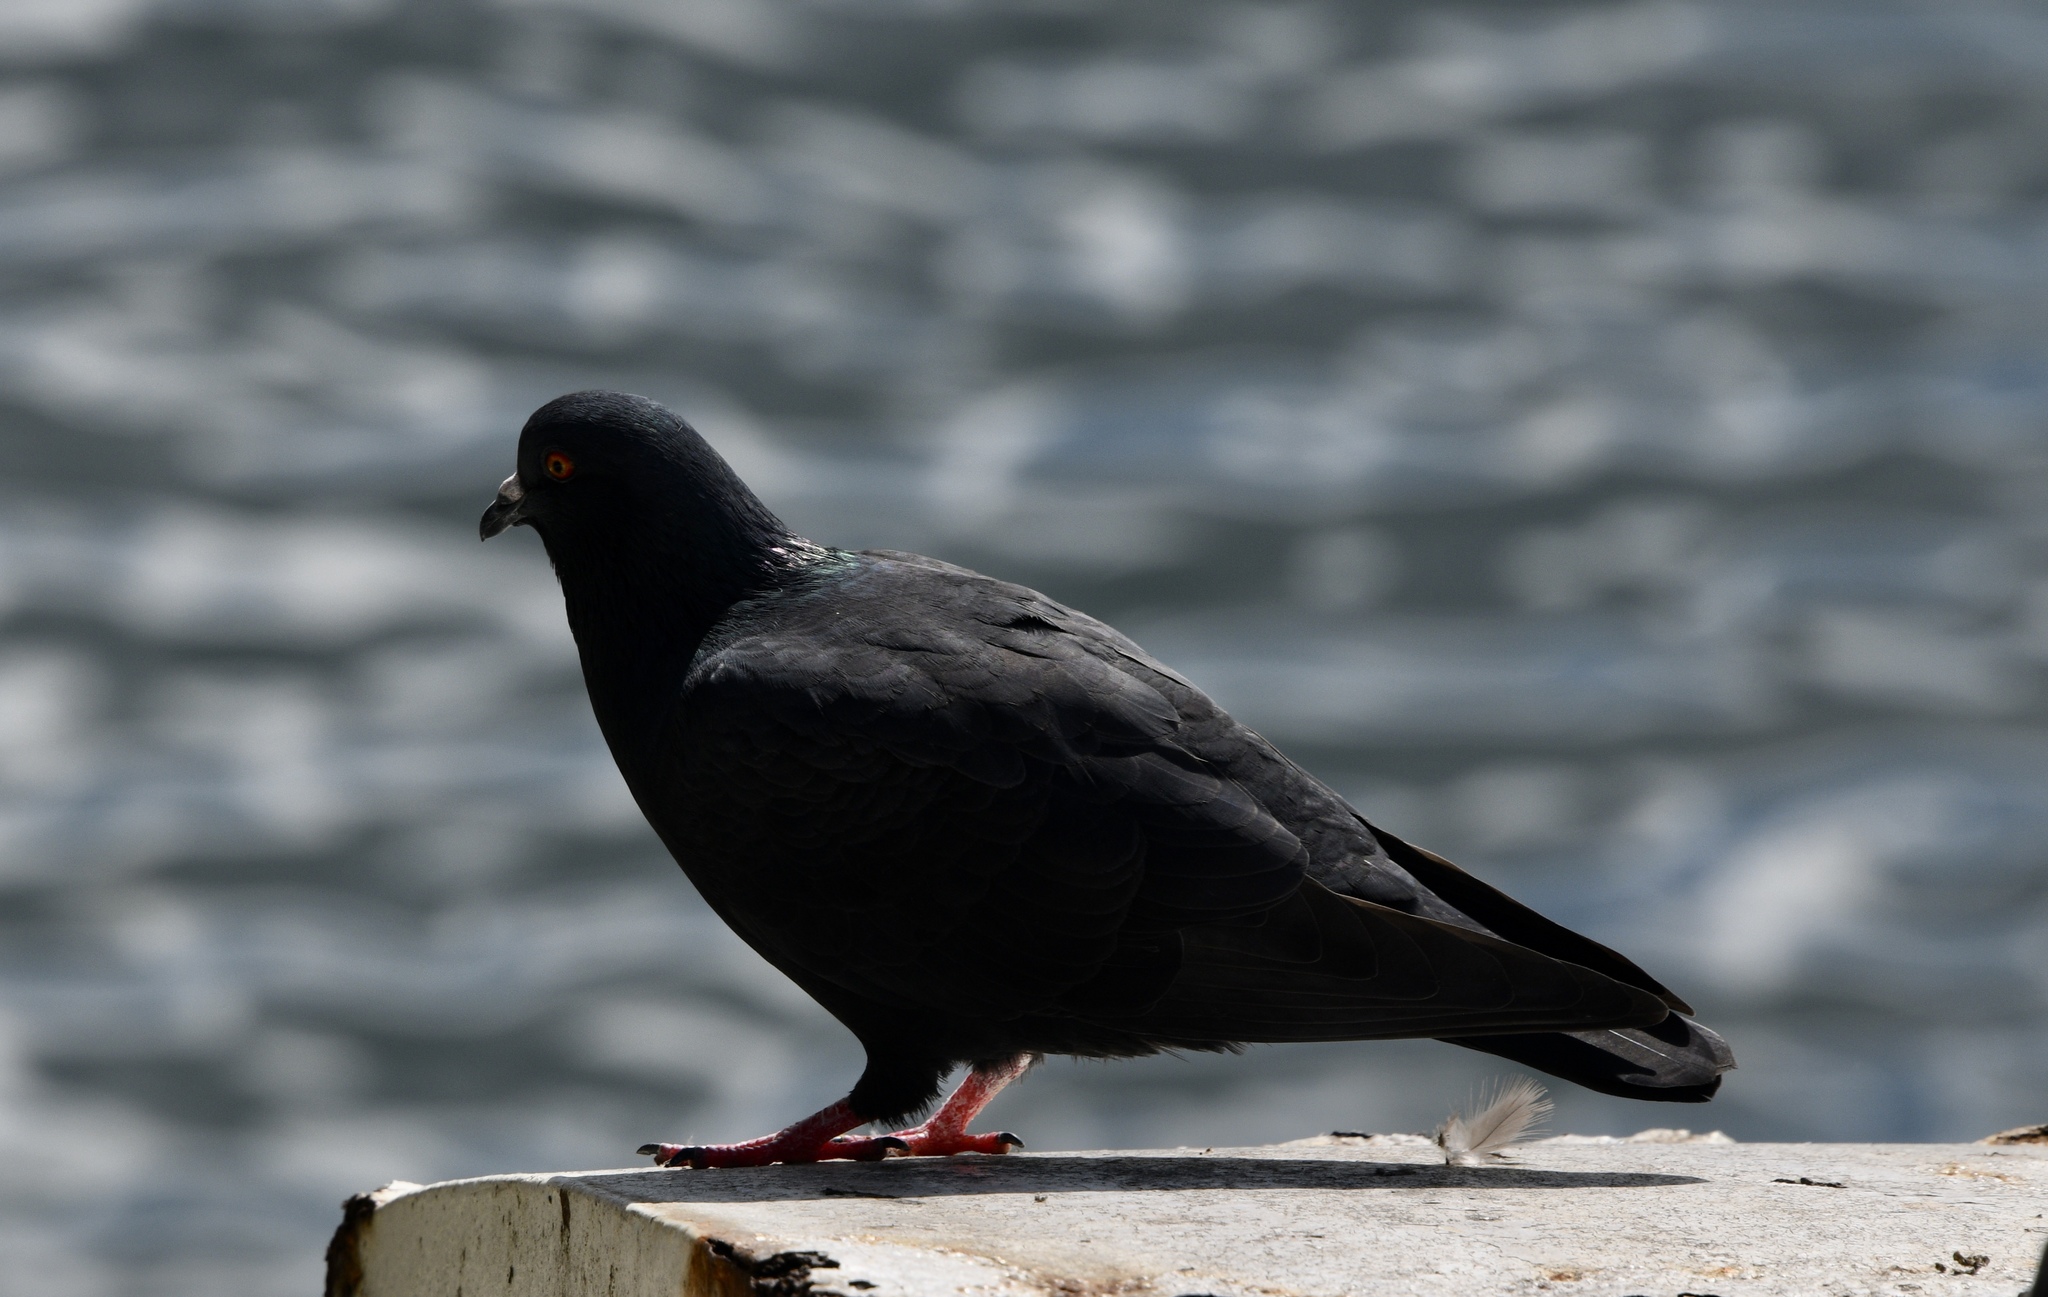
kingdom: Animalia
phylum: Chordata
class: Aves
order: Columbiformes
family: Columbidae
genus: Columba
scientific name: Columba livia
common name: Rock pigeon
